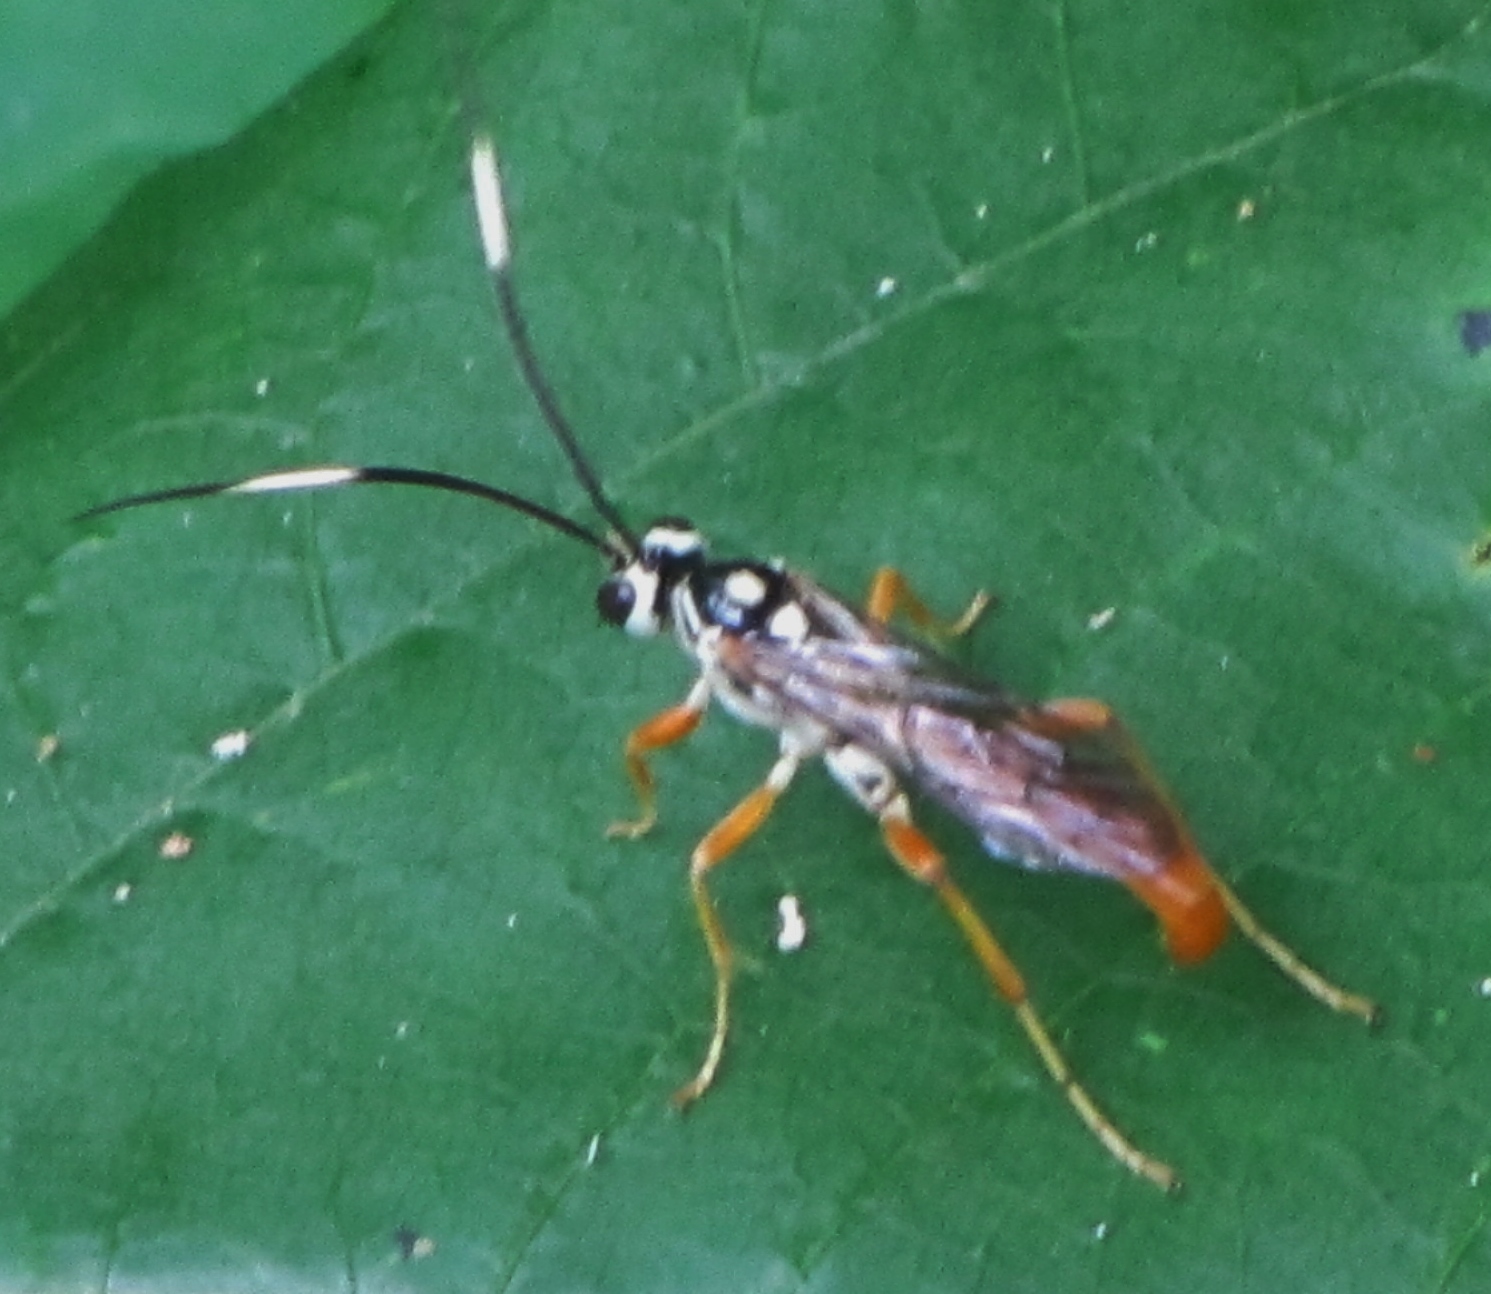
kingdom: Animalia
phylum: Arthropoda
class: Insecta
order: Hymenoptera
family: Ichneumonidae
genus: Cratichneumon
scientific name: Cratichneumon w-album
